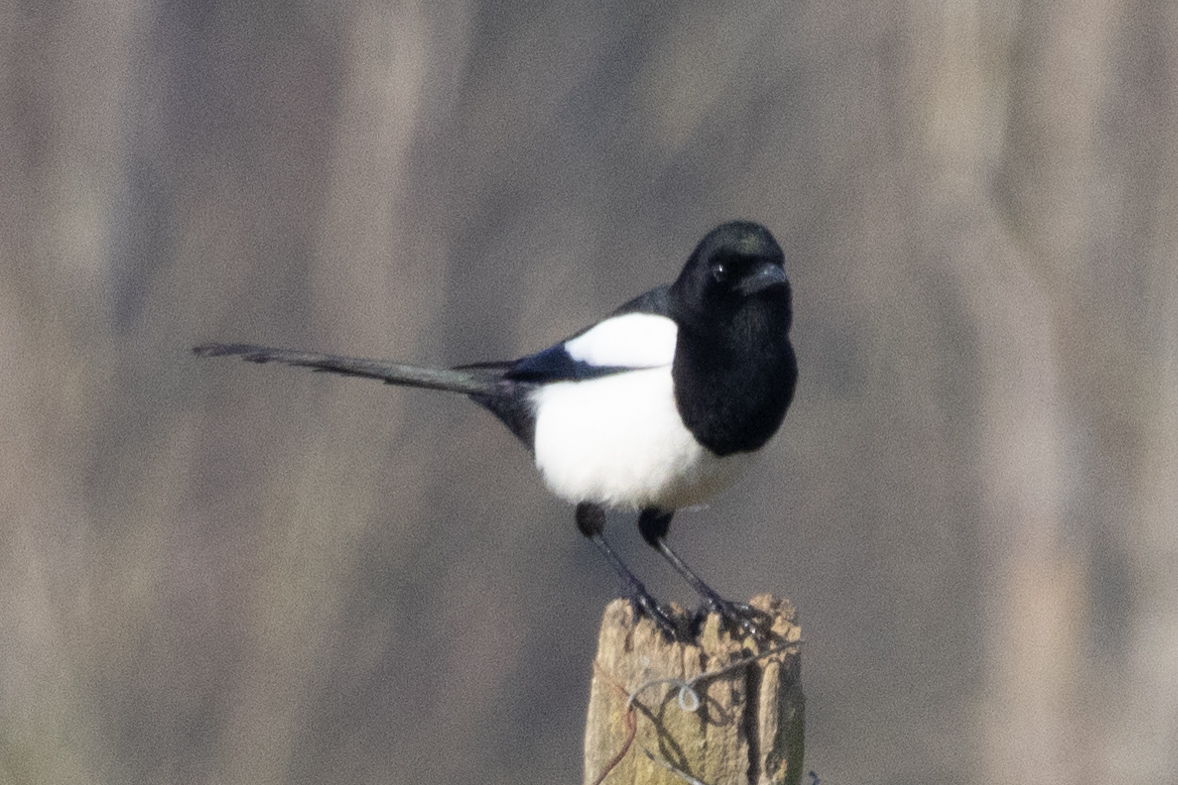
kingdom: Animalia
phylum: Chordata
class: Aves
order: Passeriformes
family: Corvidae
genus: Pica
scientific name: Pica pica
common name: Eurasian magpie
